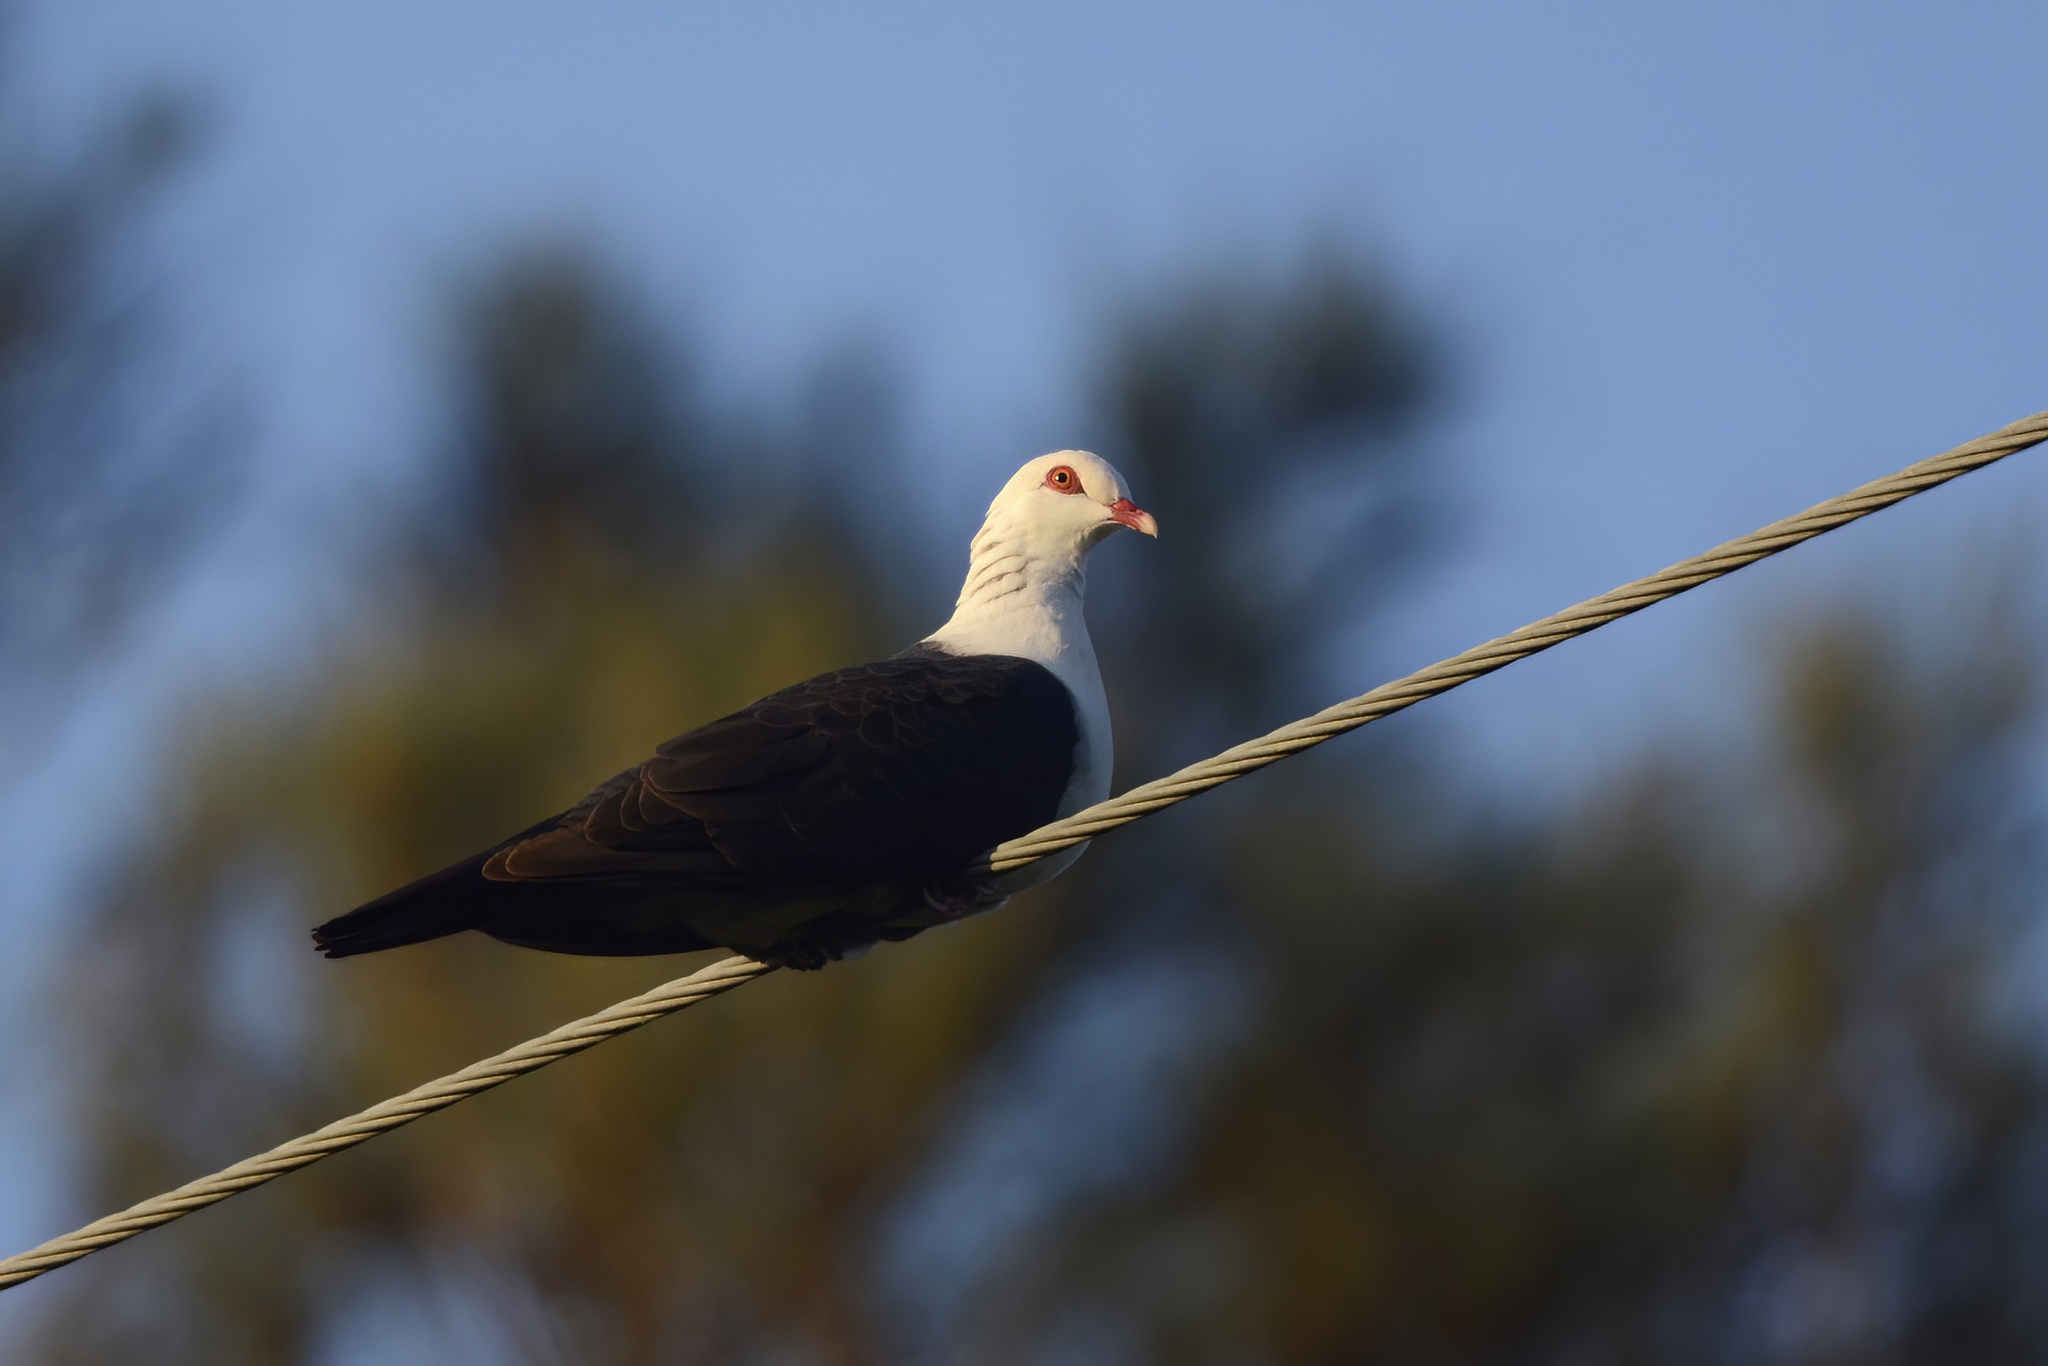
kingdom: Animalia
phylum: Chordata
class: Aves
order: Columbiformes
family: Columbidae
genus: Columba
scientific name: Columba leucomela
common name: White-headed pigeon
